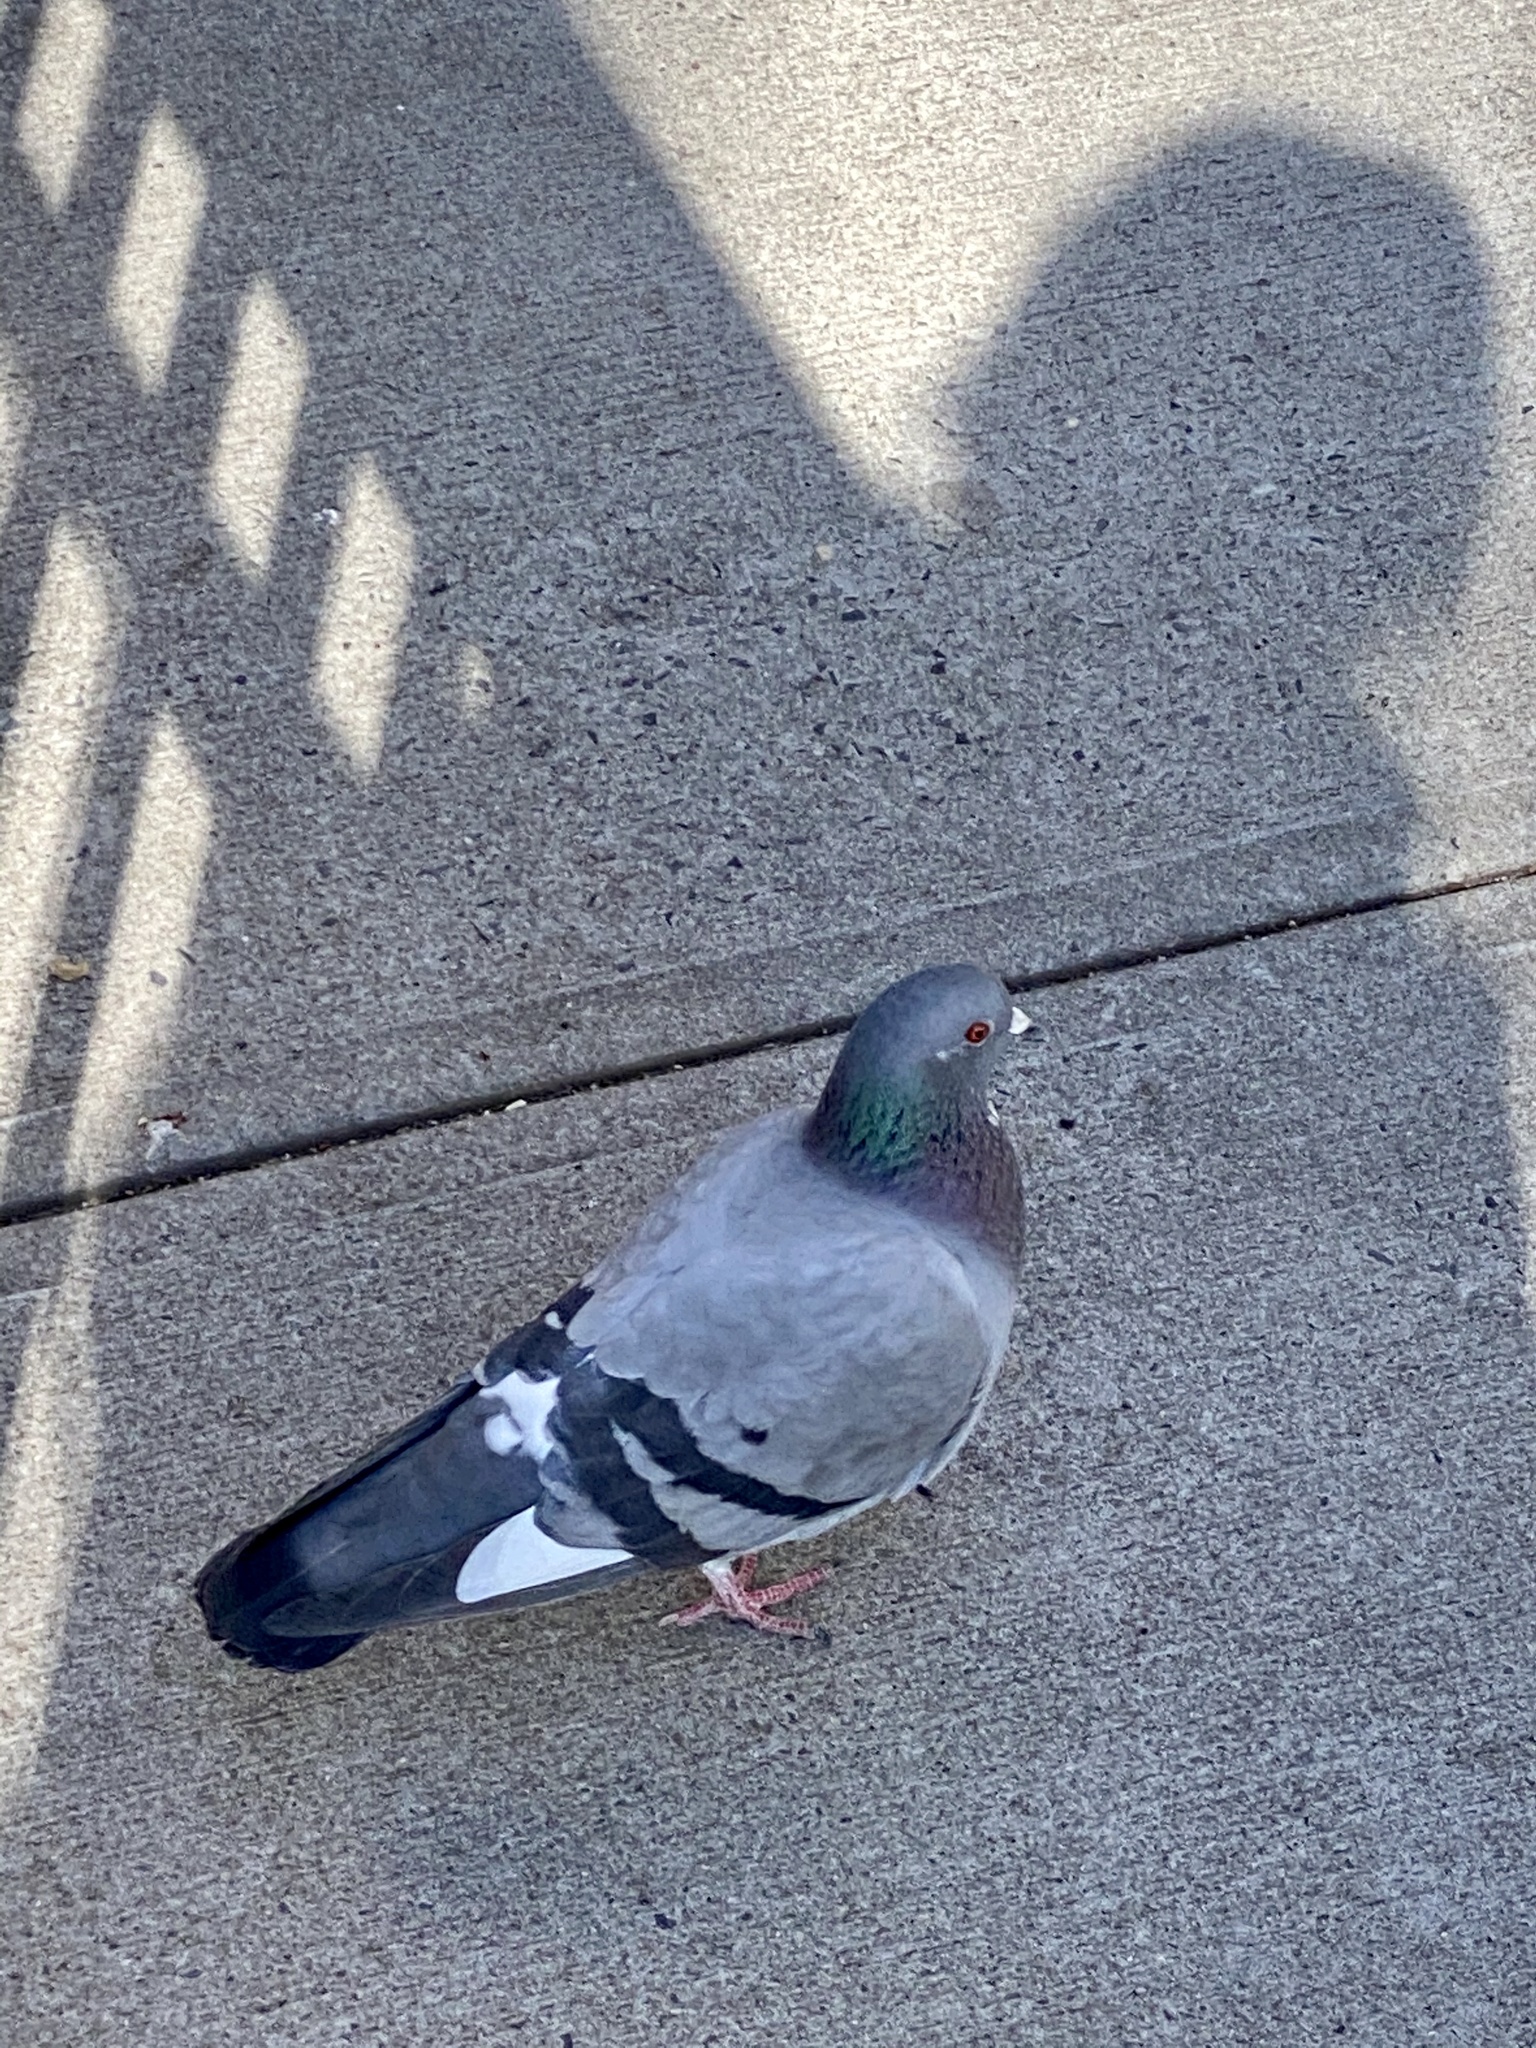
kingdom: Animalia
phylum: Chordata
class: Aves
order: Columbiformes
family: Columbidae
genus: Columba
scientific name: Columba livia
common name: Rock pigeon
